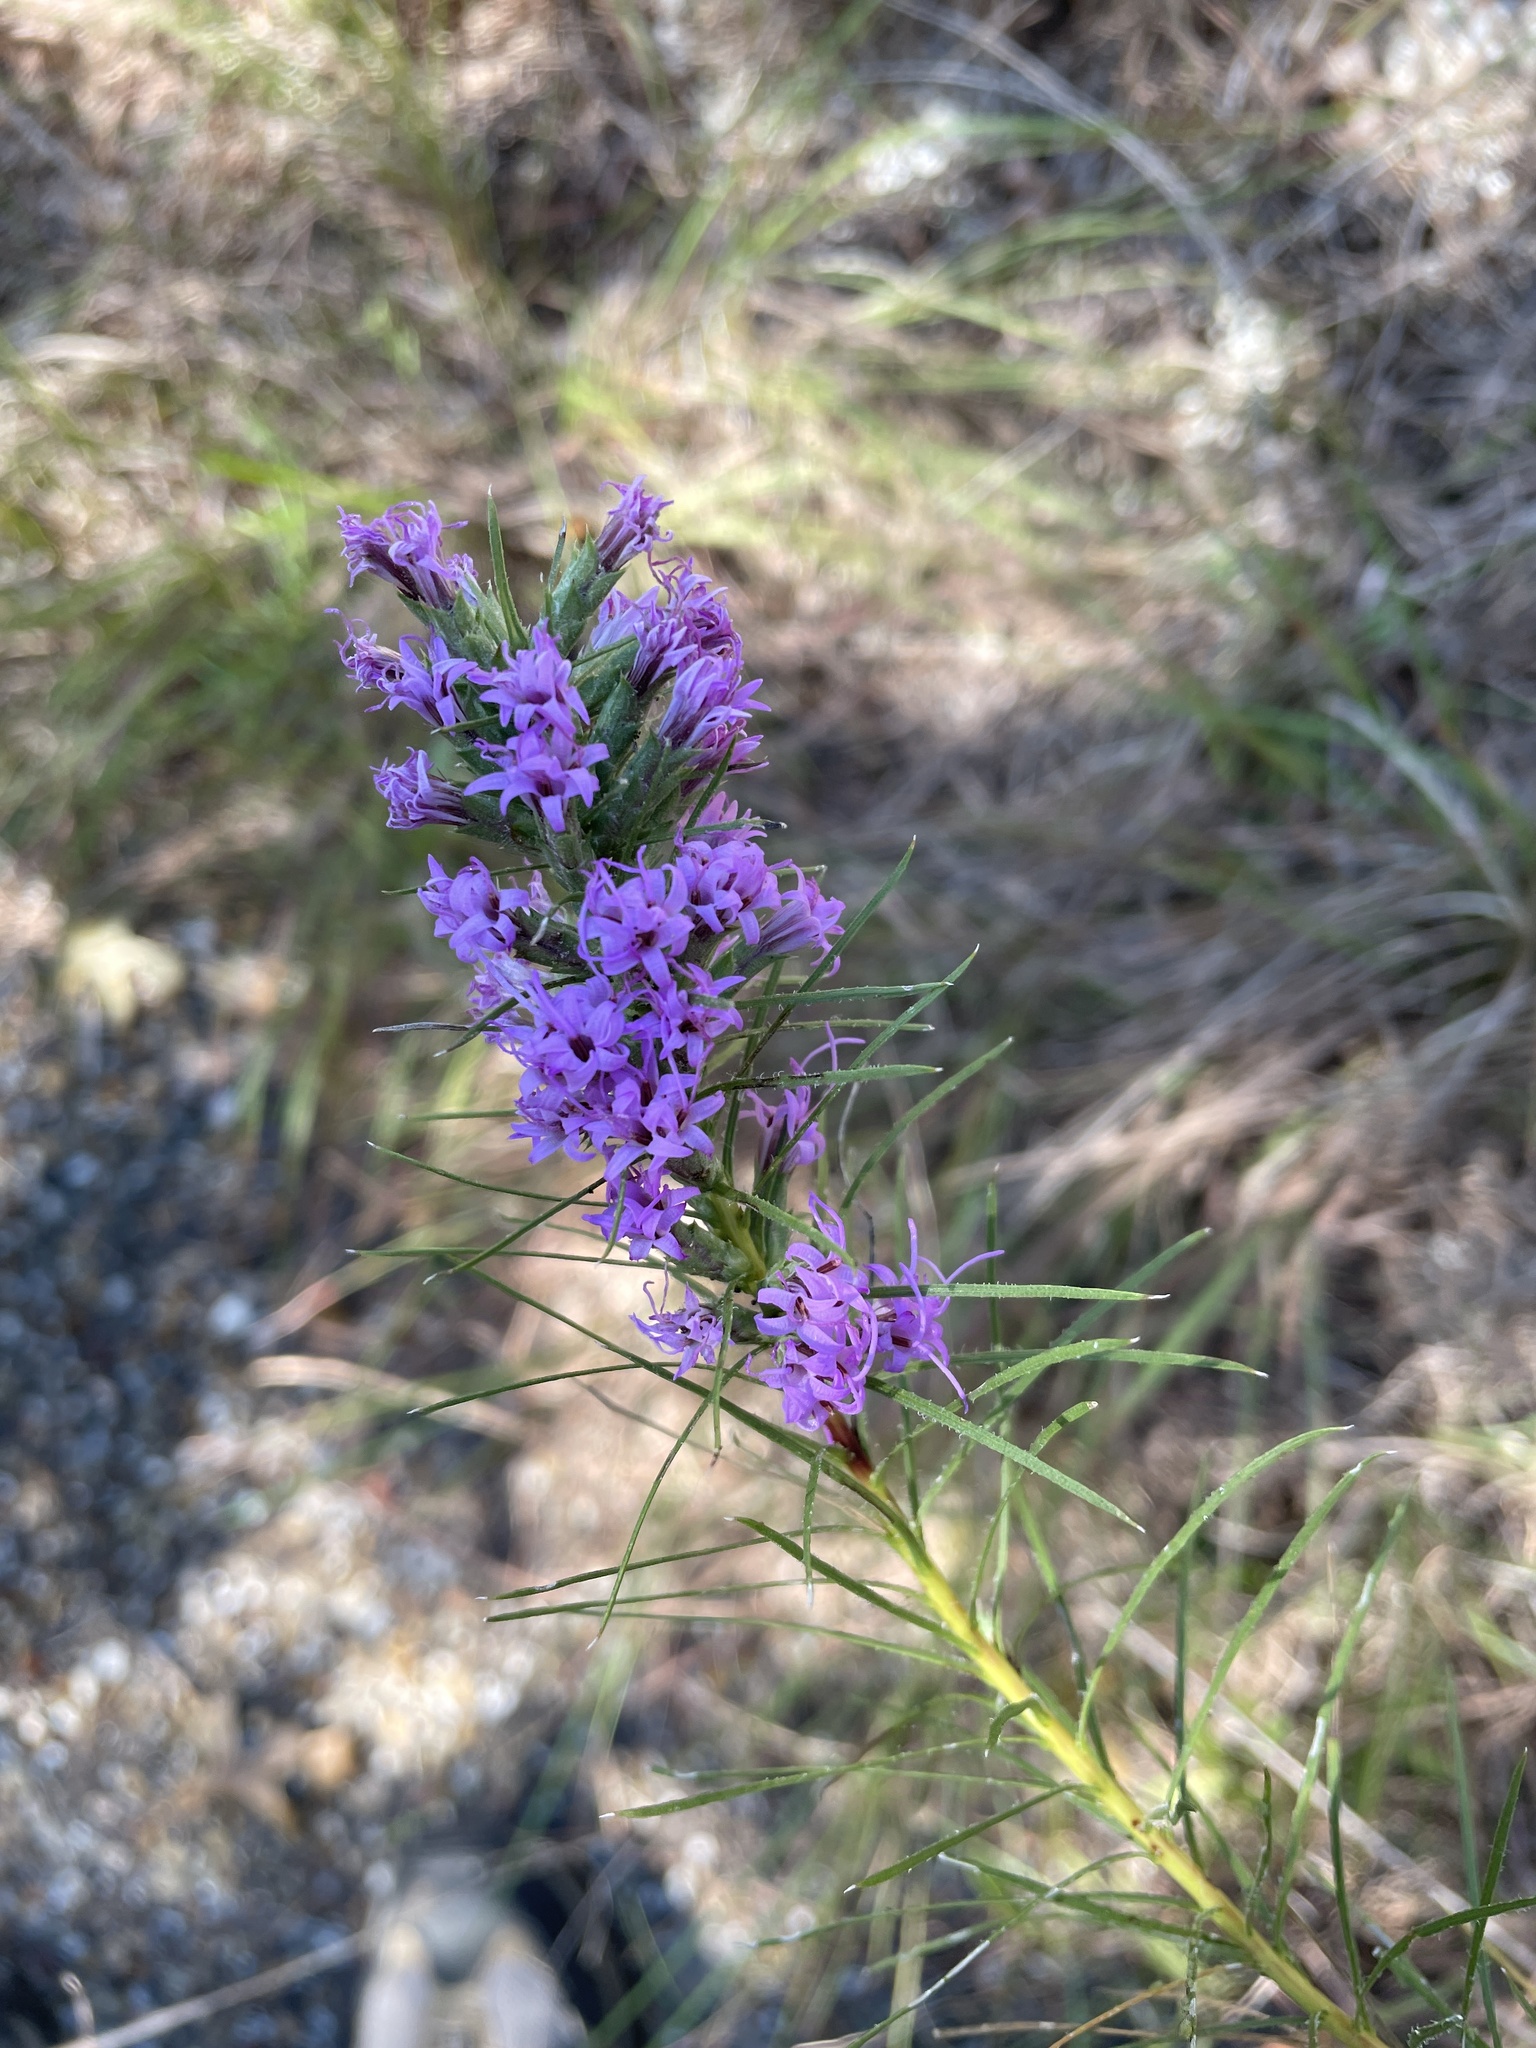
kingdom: Plantae
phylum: Tracheophyta
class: Magnoliopsida
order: Asterales
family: Asteraceae
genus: Liatris
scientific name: Liatris punctata
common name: Dotted gayfeather
